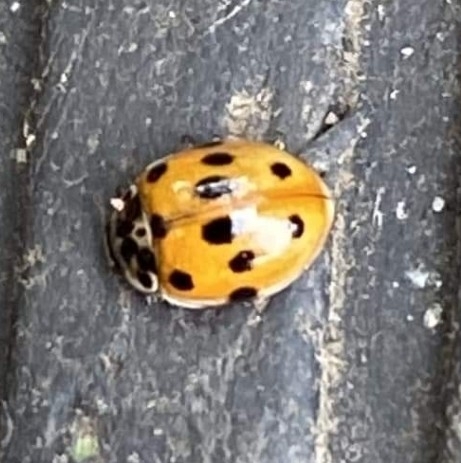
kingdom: Animalia
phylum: Arthropoda
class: Insecta
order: Coleoptera
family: Coccinellidae
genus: Adalia
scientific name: Adalia decempunctata
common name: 10-spot ladybird
